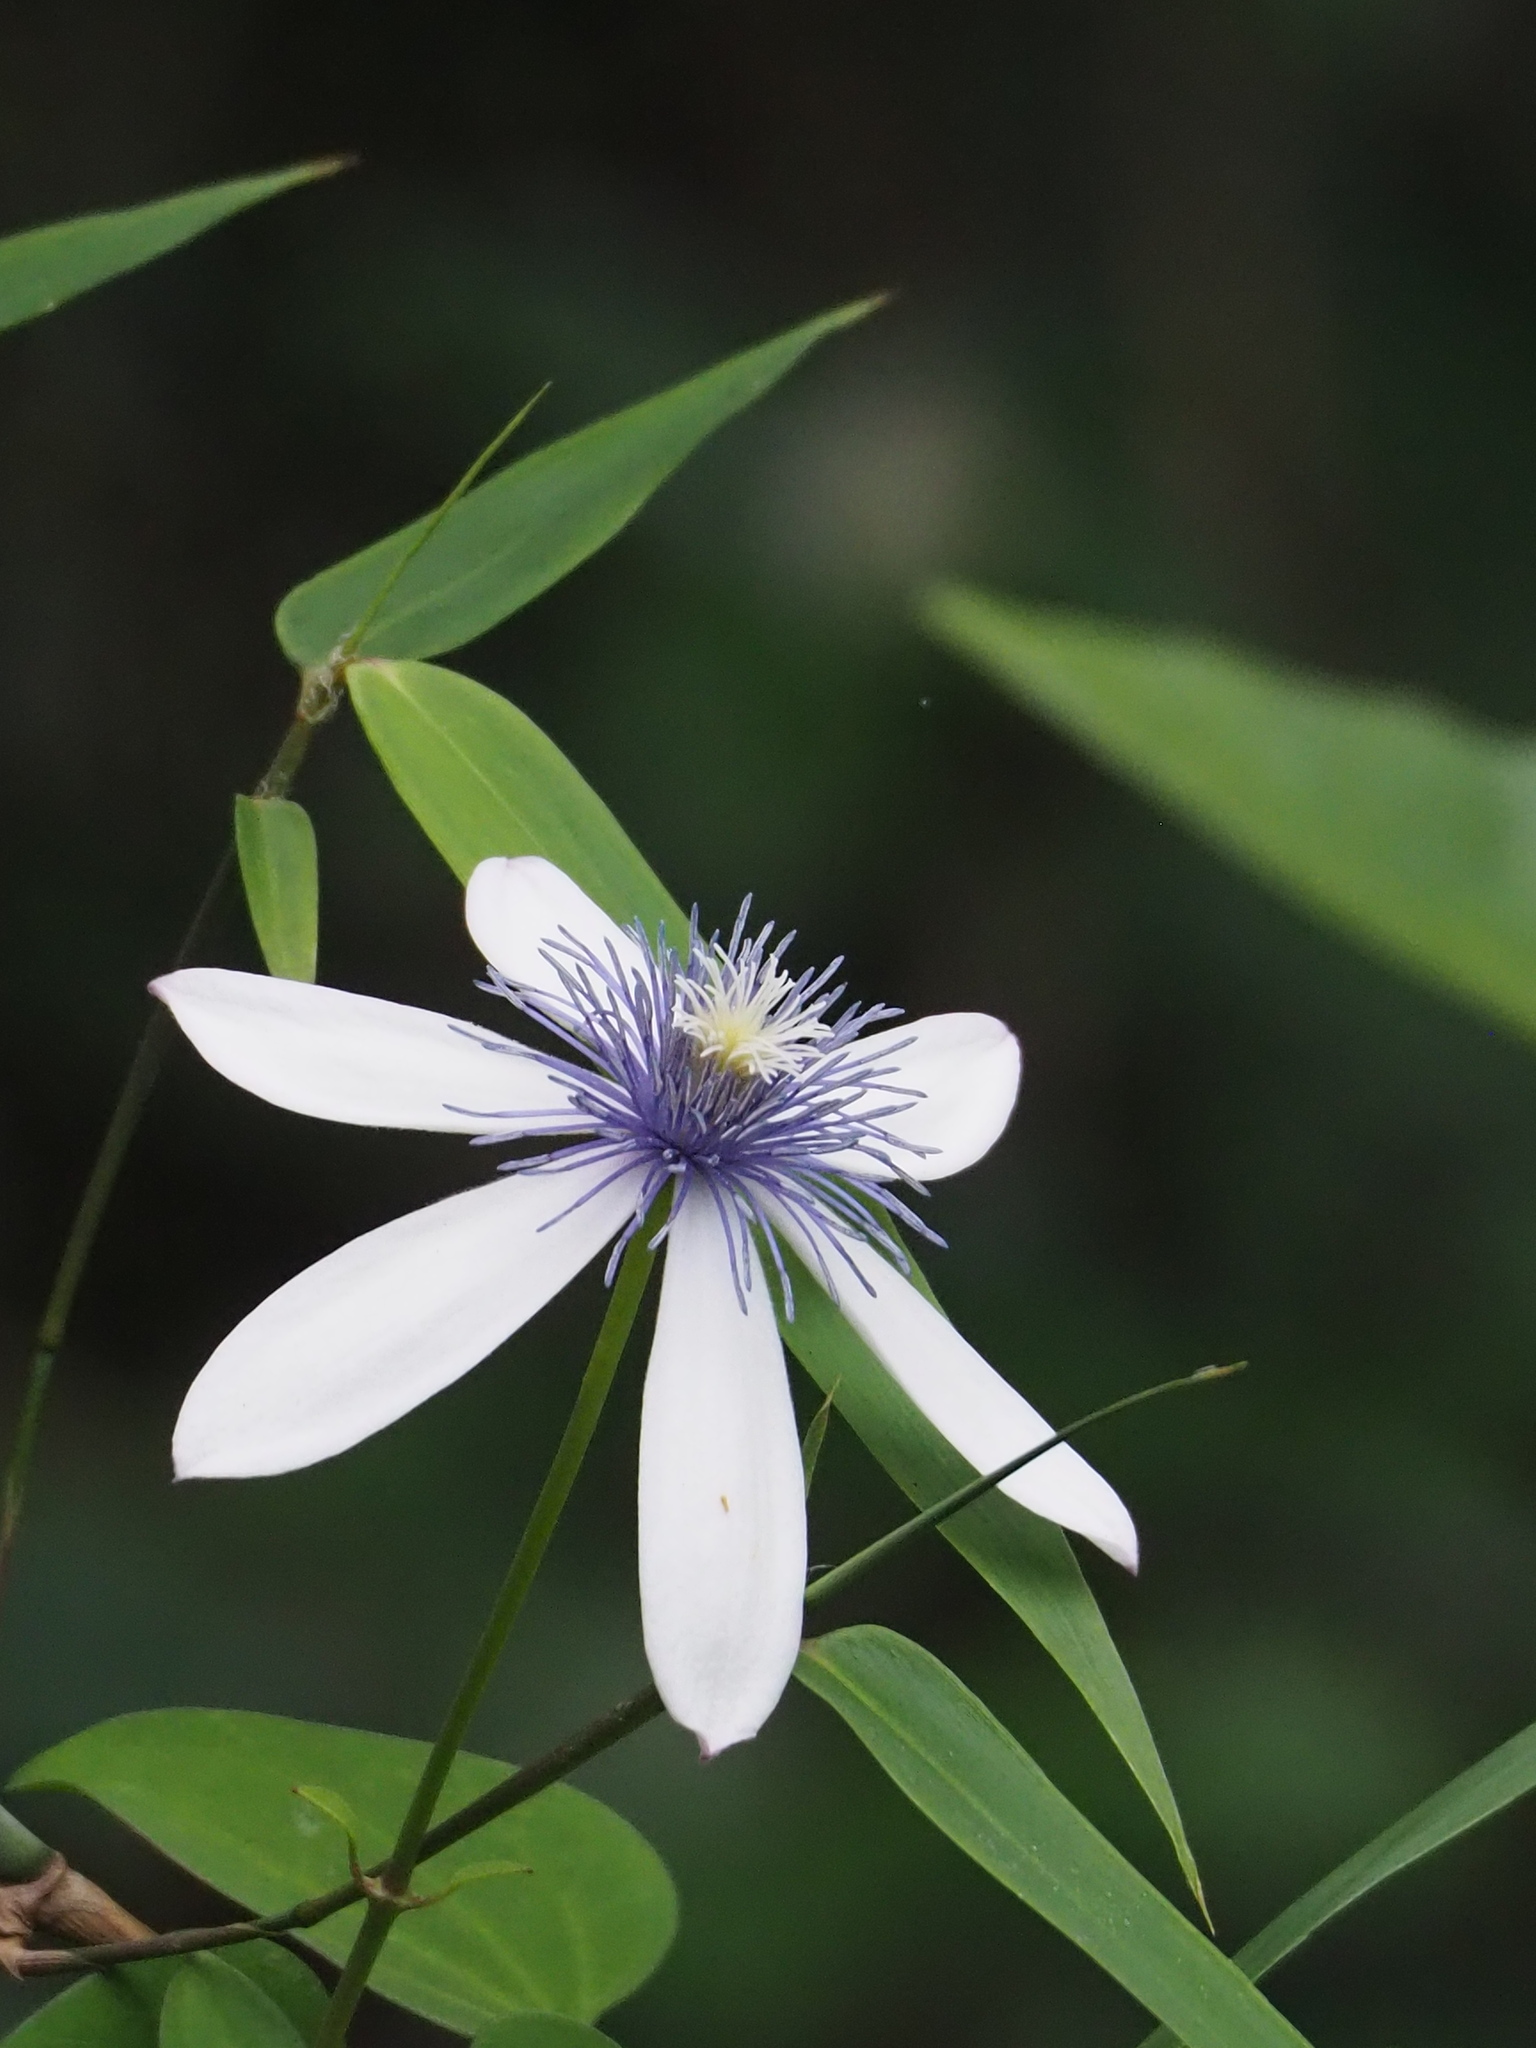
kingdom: Plantae
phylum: Tracheophyta
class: Magnoliopsida
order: Ranunculales
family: Ranunculaceae
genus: Clematis
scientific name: Clematis akoensis
